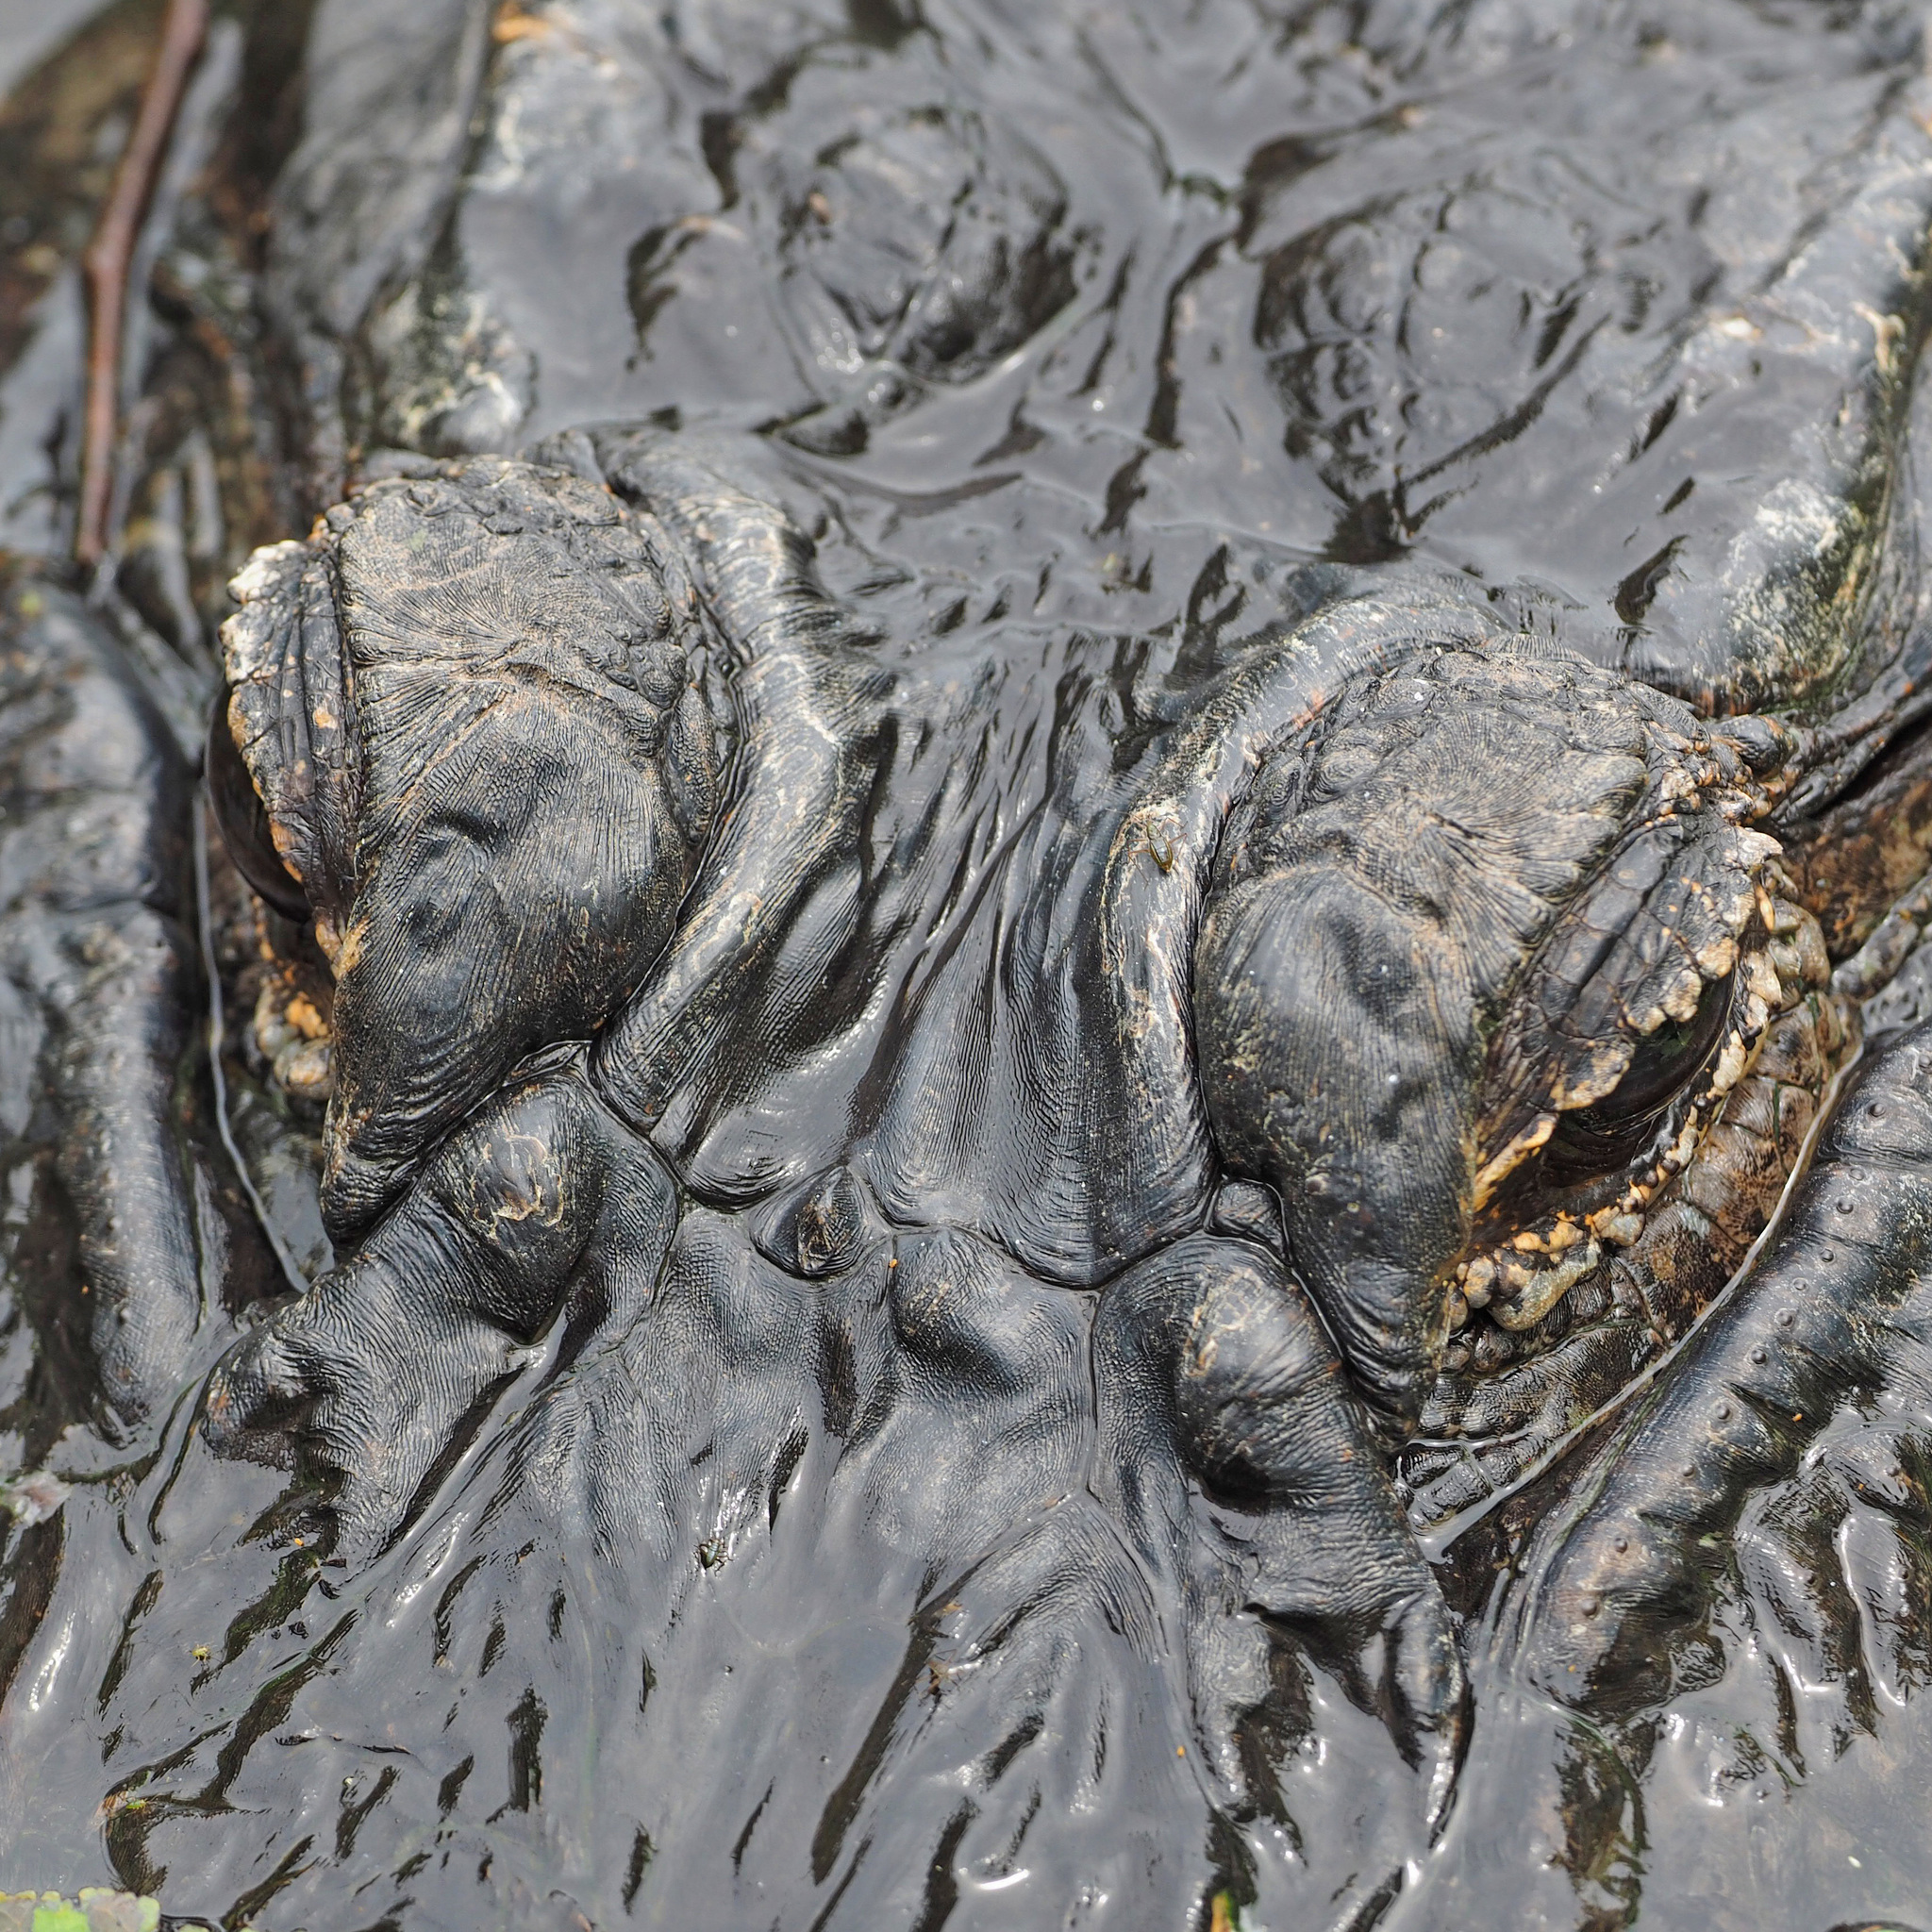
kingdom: Animalia
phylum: Chordata
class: Crocodylia
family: Alligatoridae
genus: Alligator
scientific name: Alligator mississippiensis
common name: American alligator
